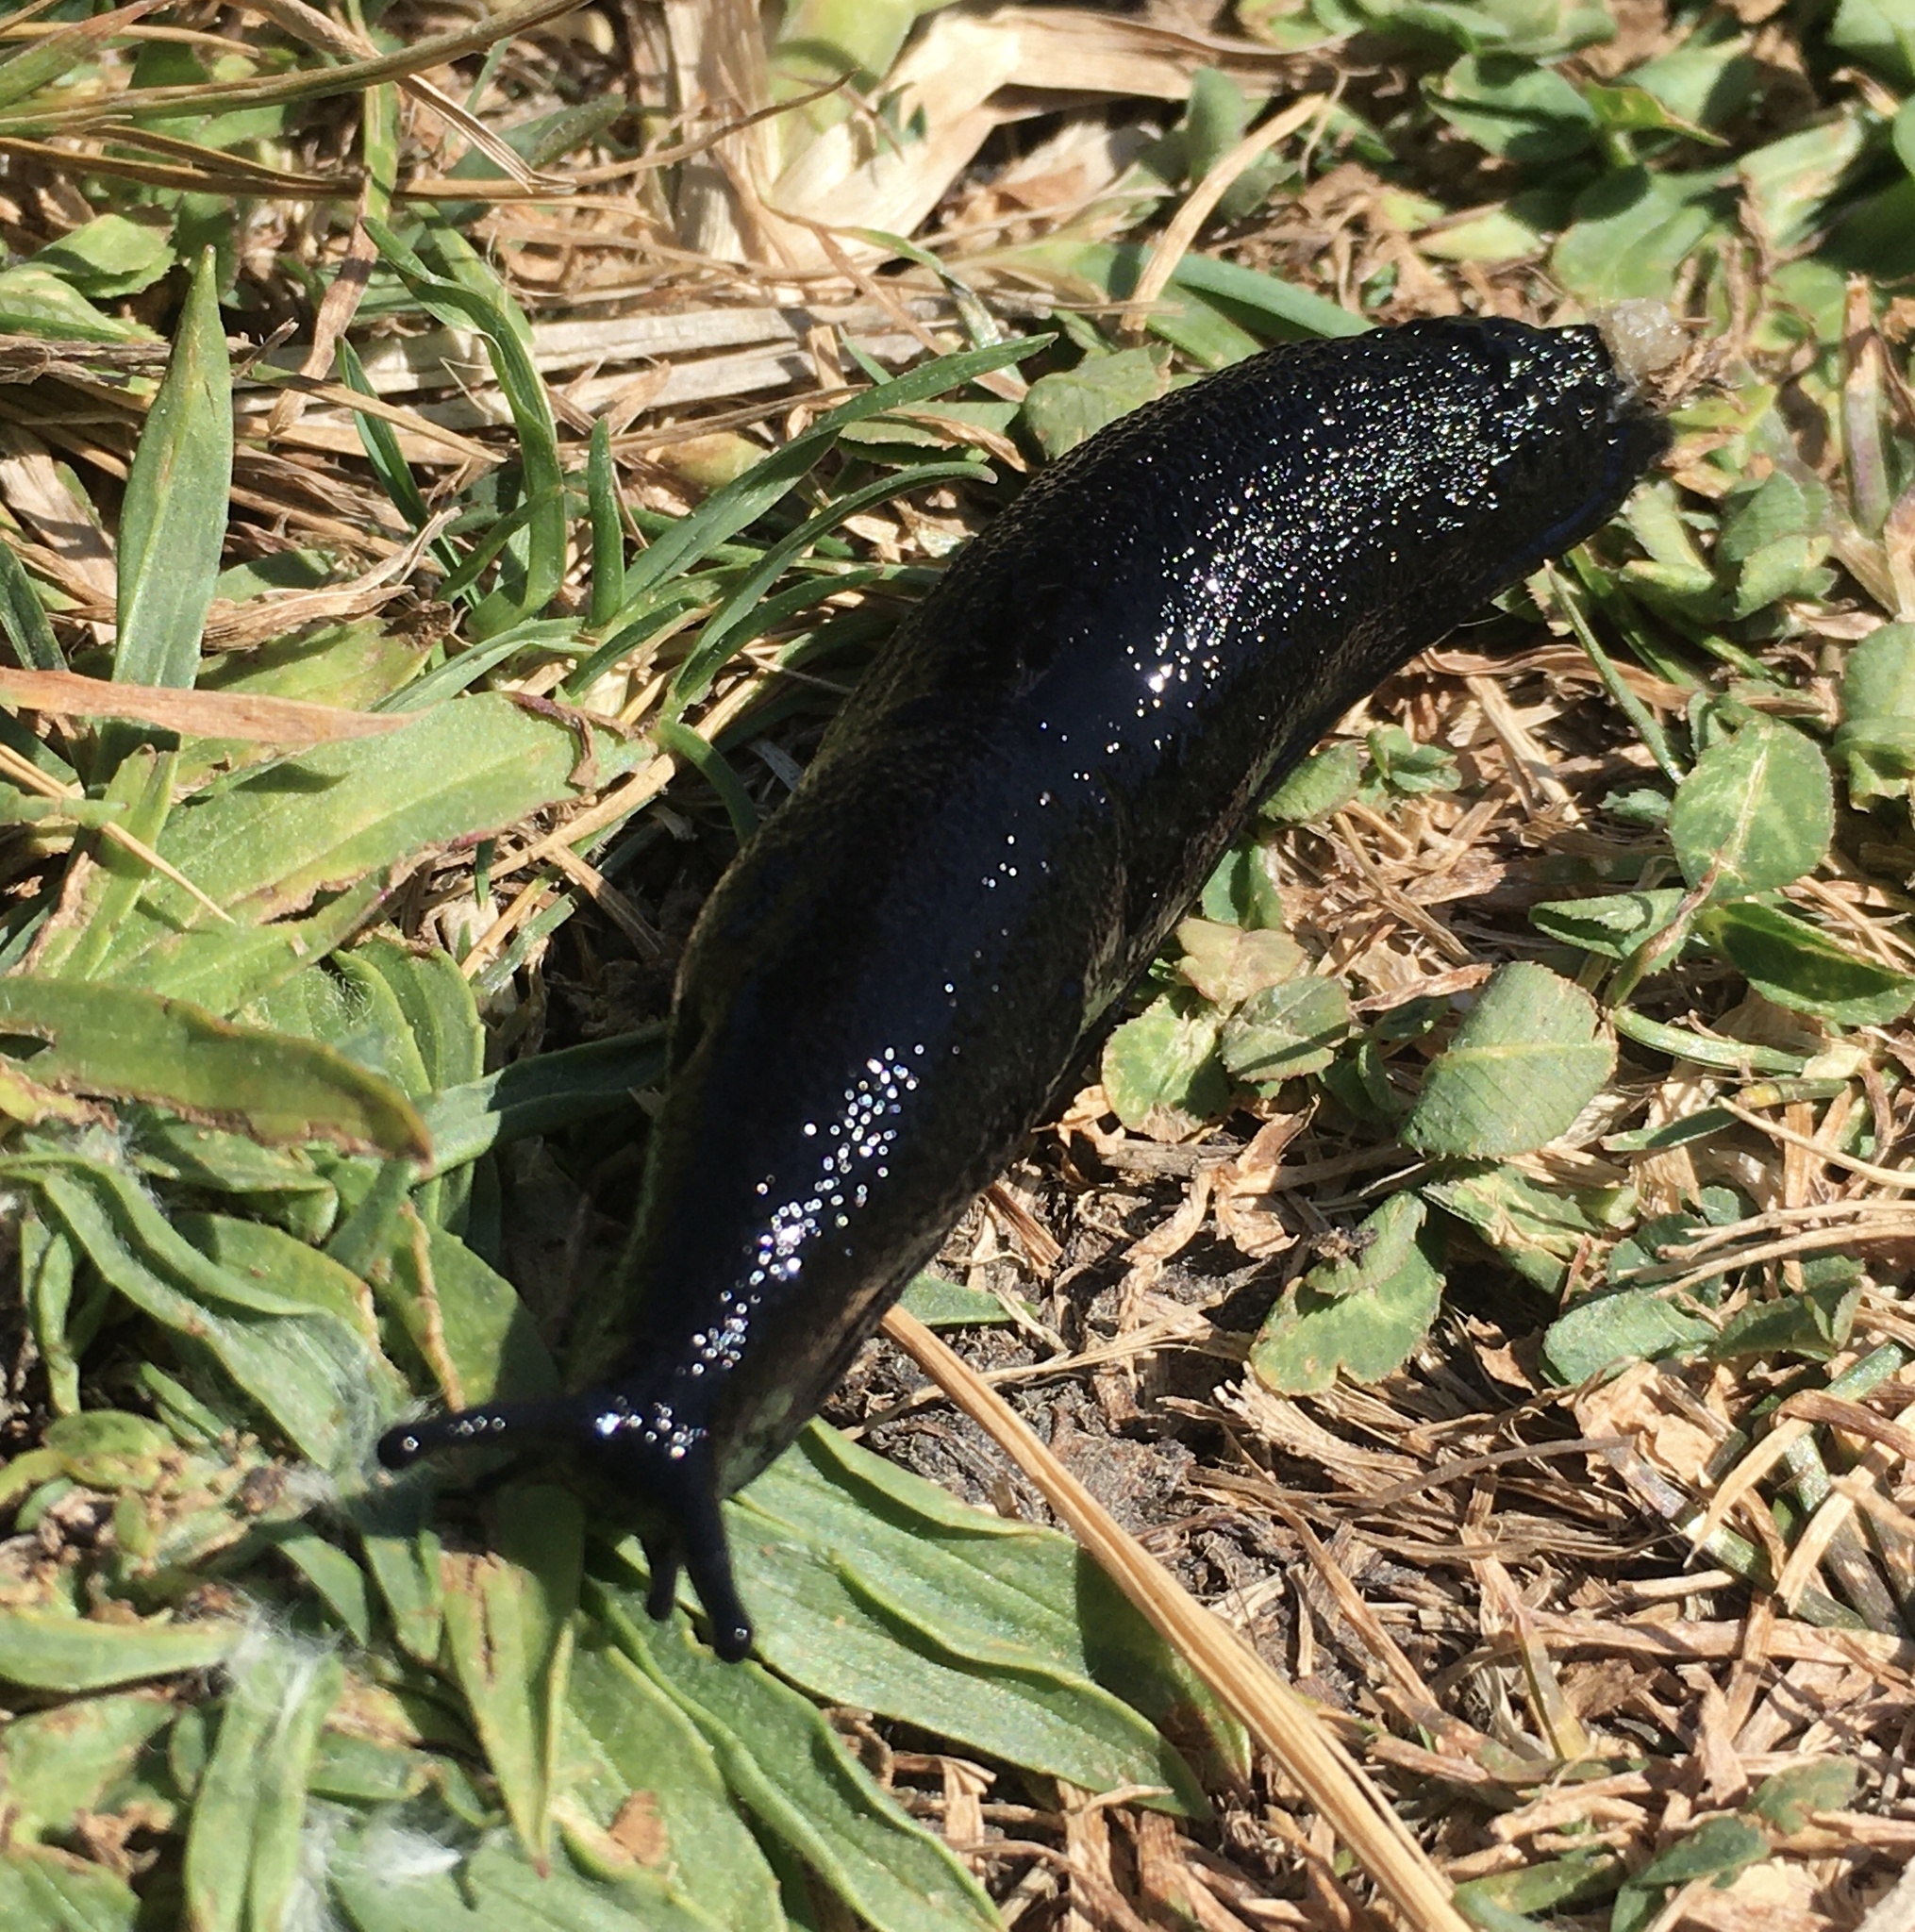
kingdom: Animalia
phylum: Mollusca
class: Gastropoda
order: Stylommatophora
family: Arionidae
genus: Arion
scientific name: Arion ater
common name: Black arion
